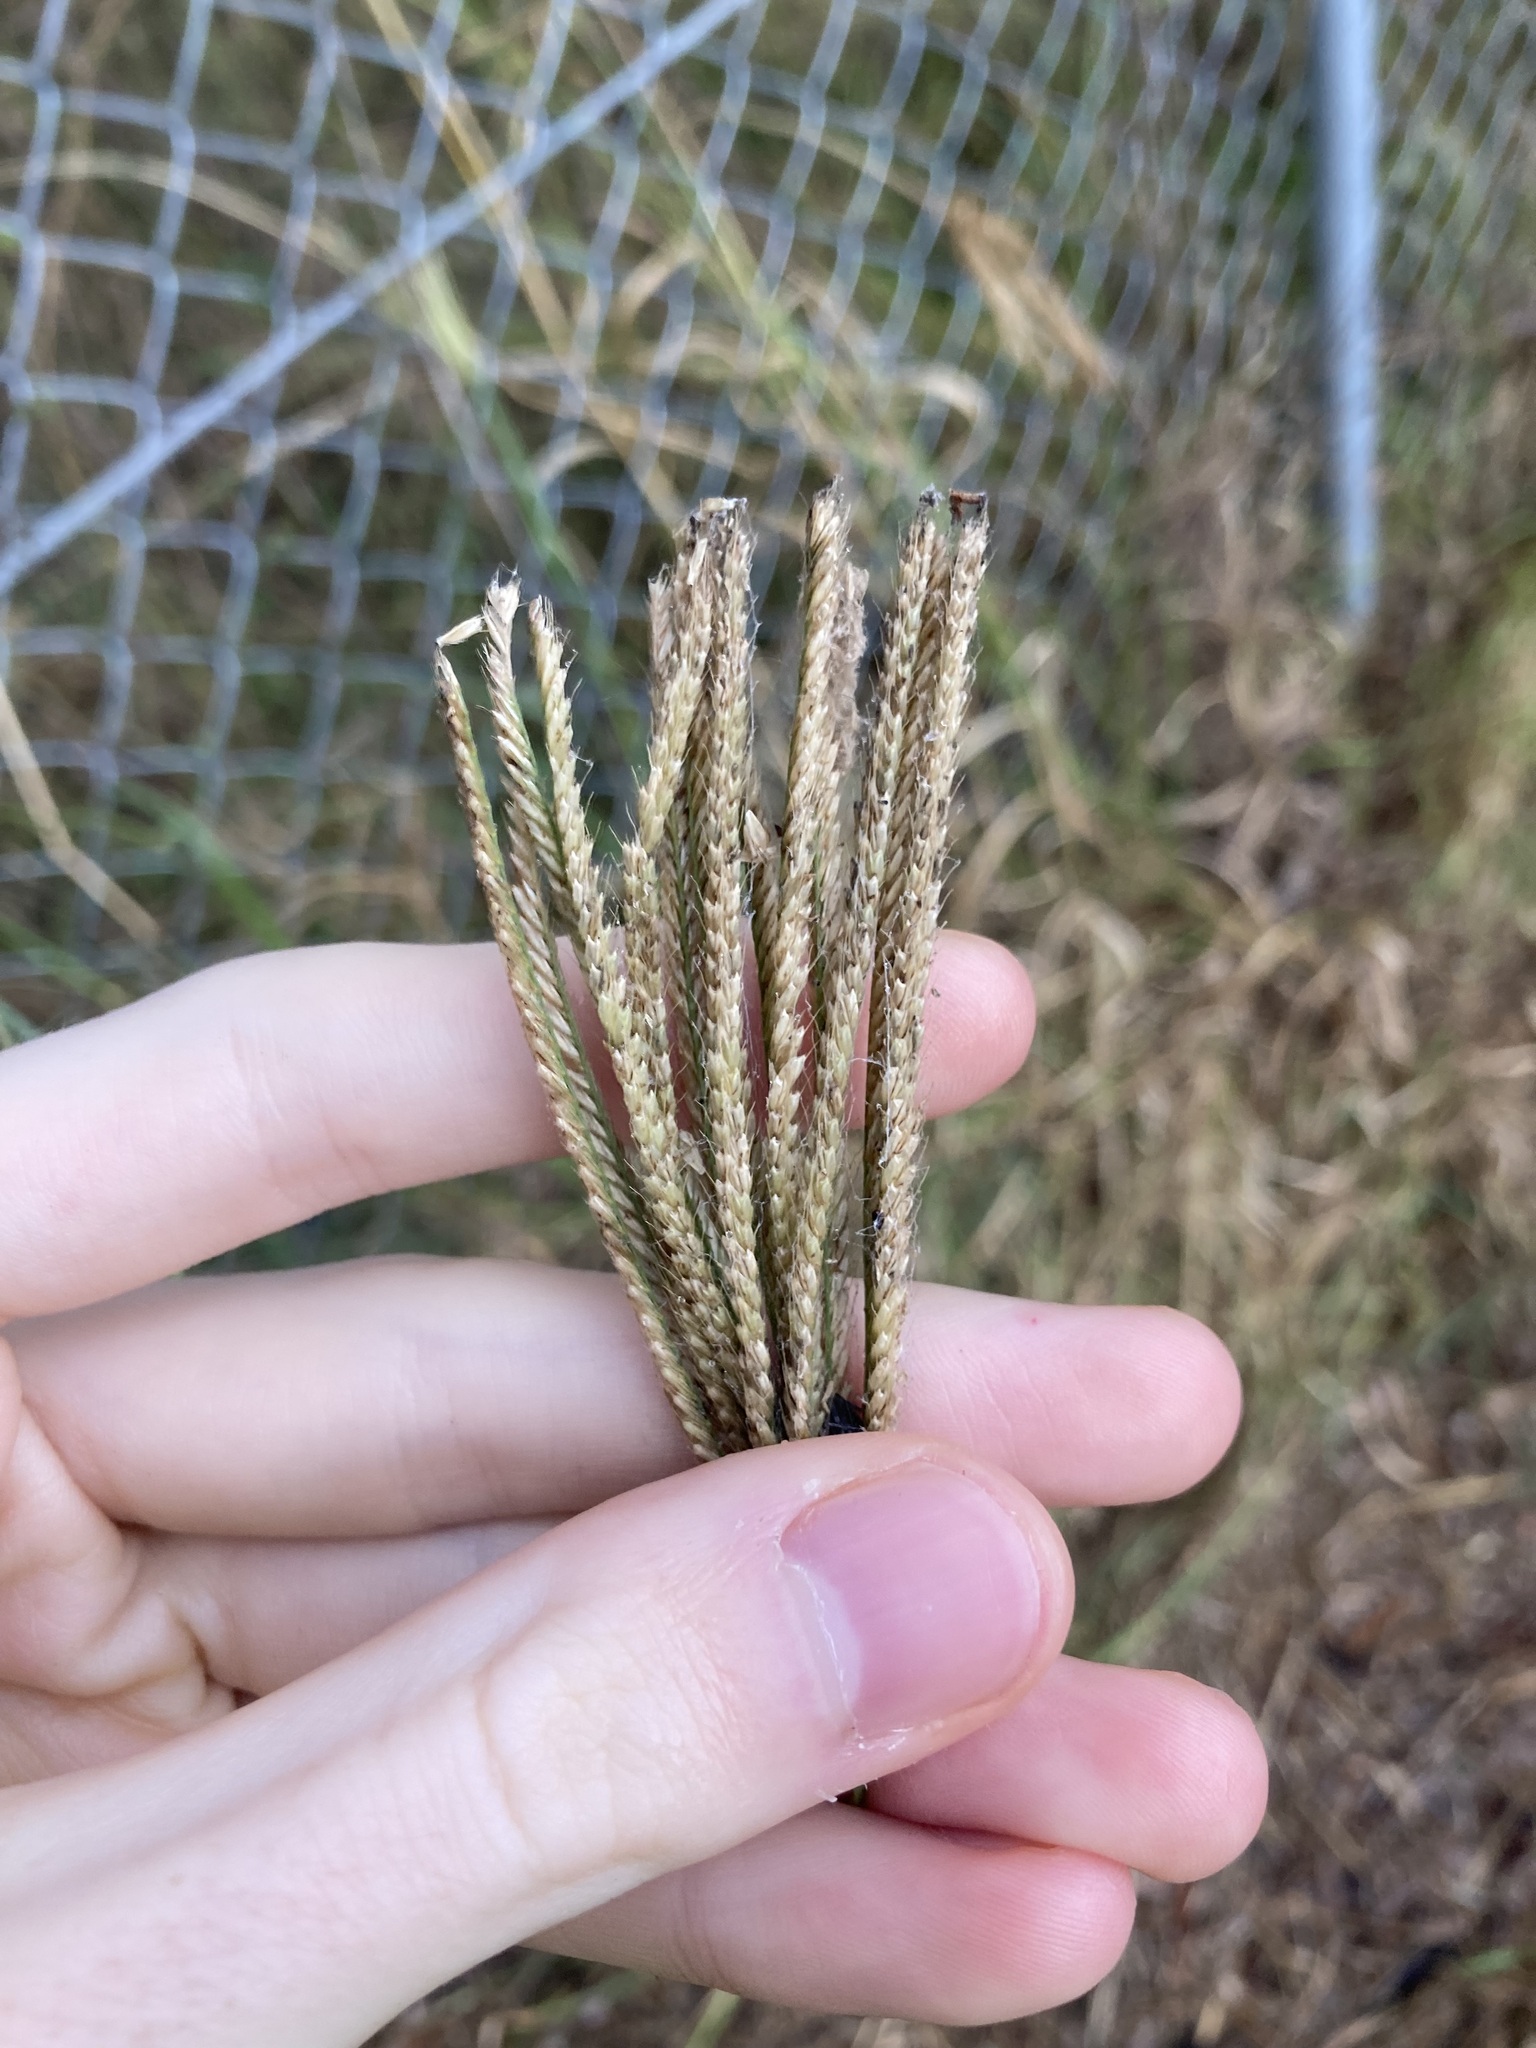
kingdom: Plantae
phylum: Tracheophyta
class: Liliopsida
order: Poales
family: Poaceae
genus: Chloris
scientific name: Chloris gayana
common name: Rhodes grass
